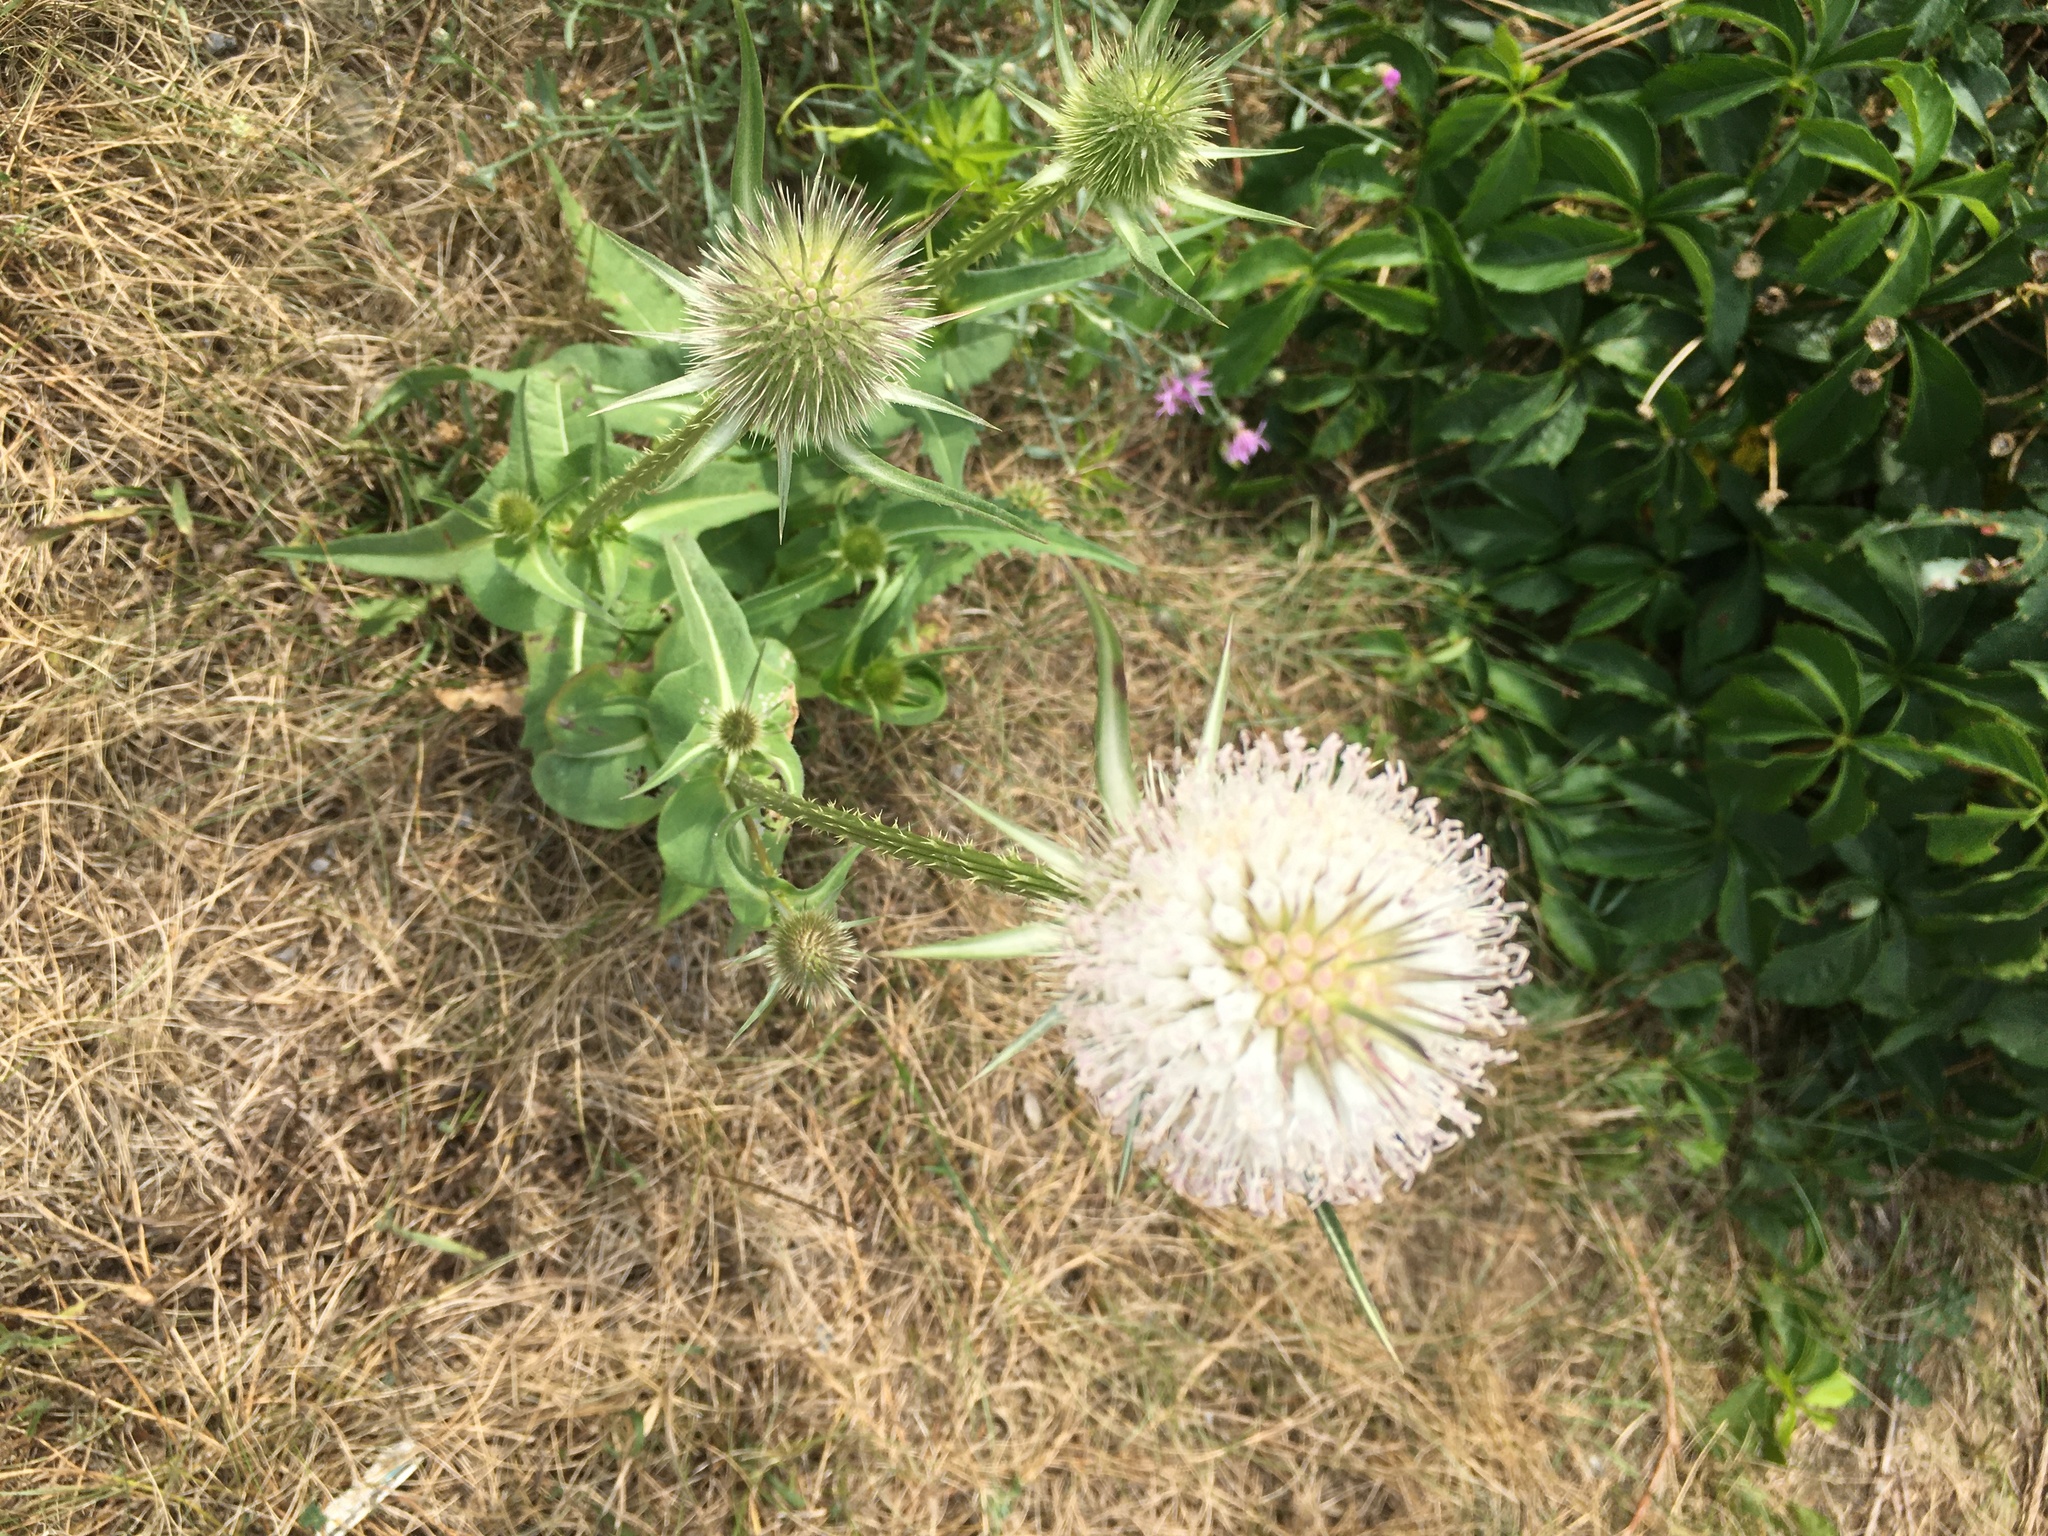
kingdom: Plantae
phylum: Tracheophyta
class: Magnoliopsida
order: Dipsacales
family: Caprifoliaceae
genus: Dipsacus
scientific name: Dipsacus laciniatus
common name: Cut-leaved teasel
